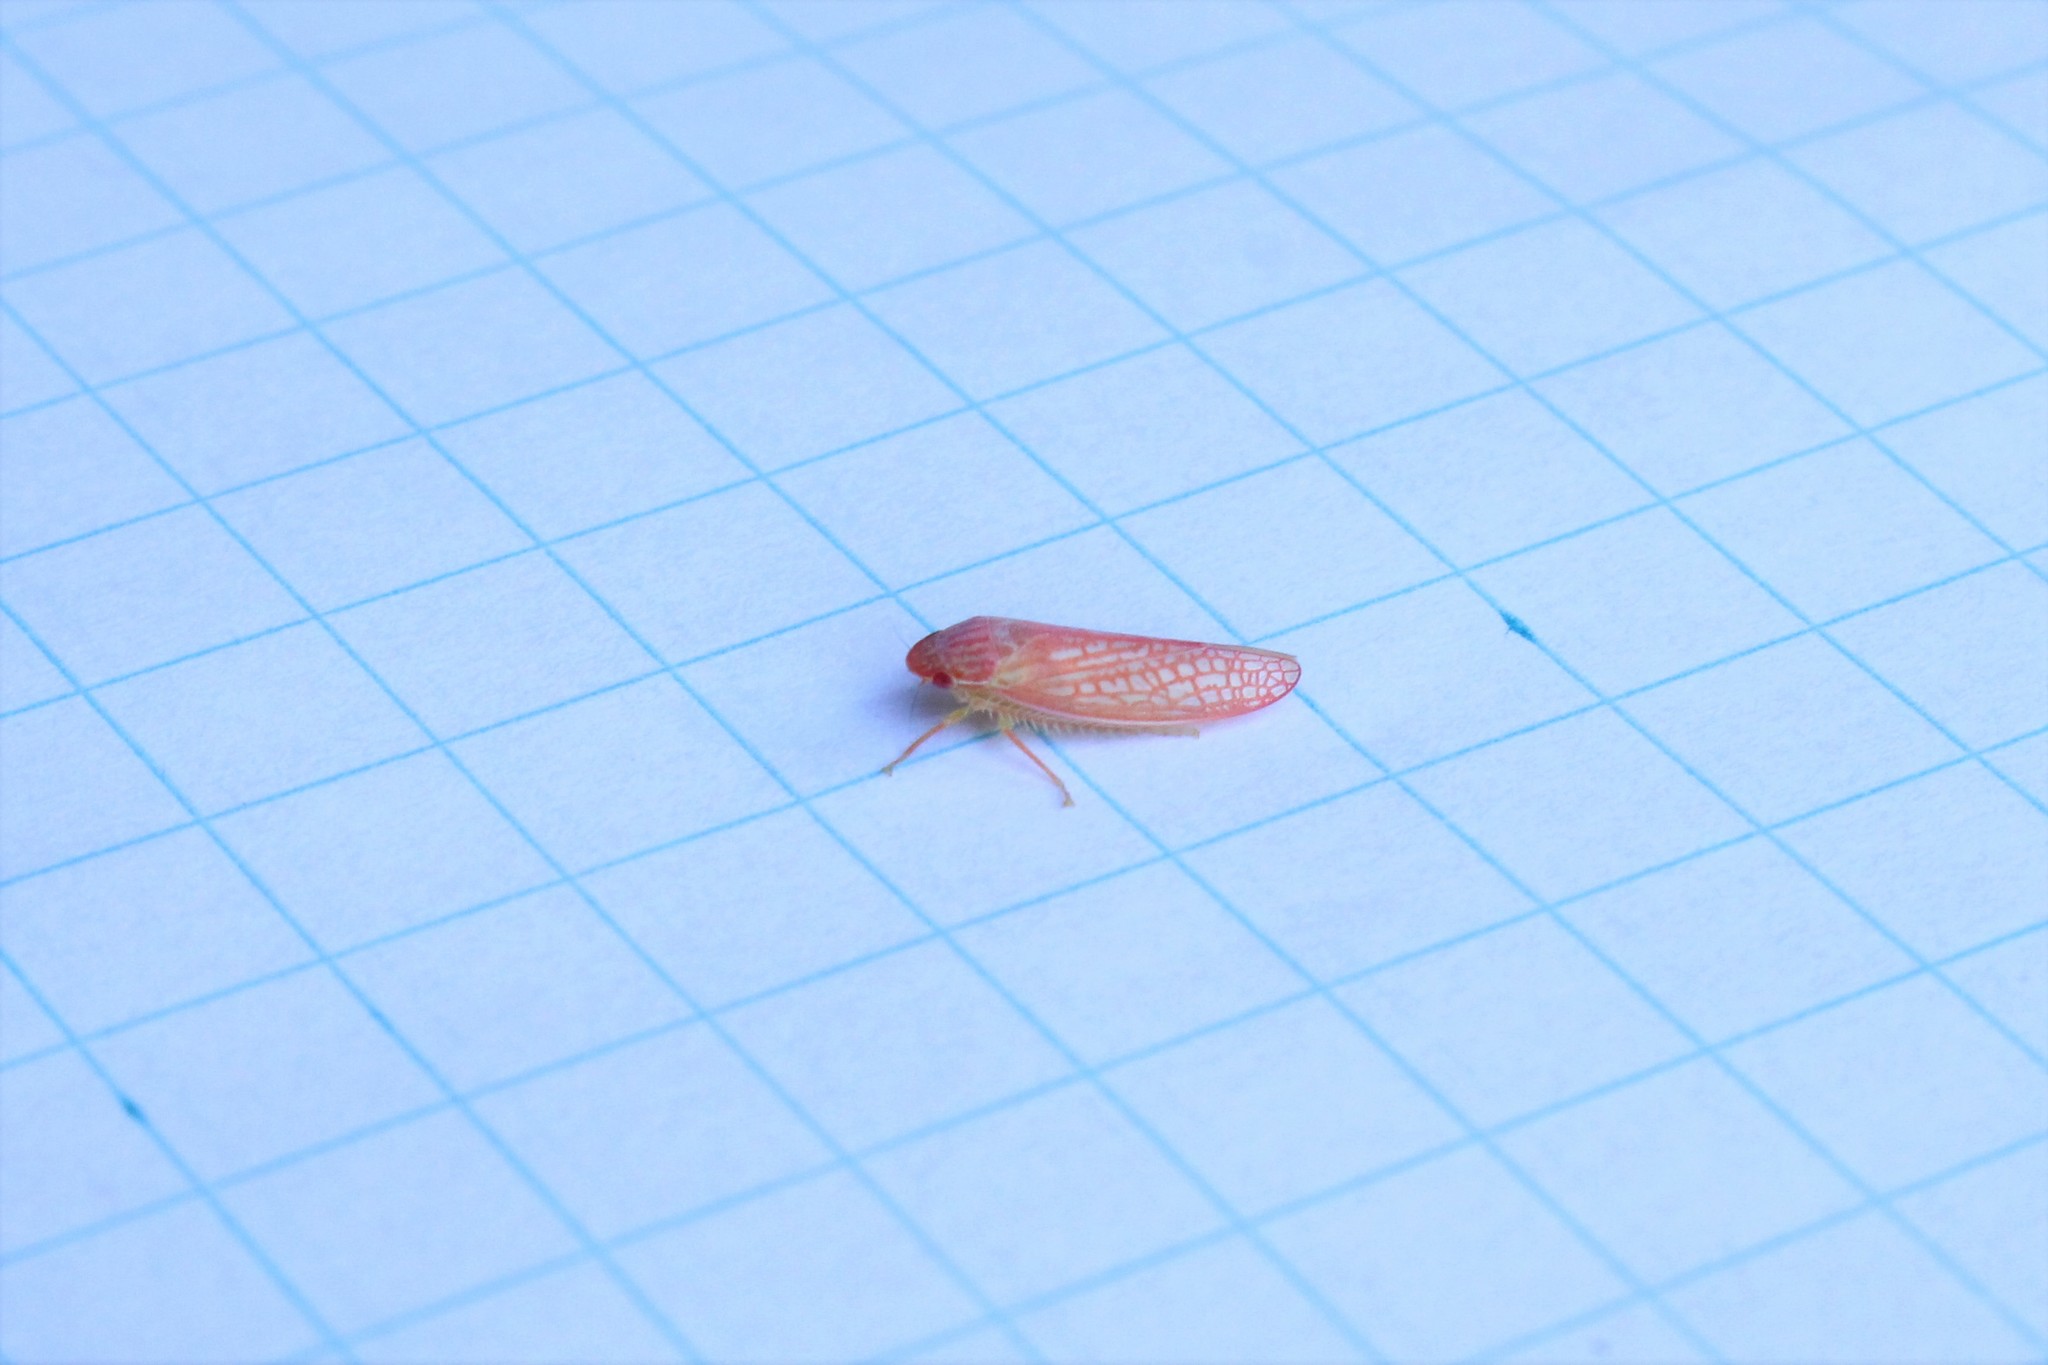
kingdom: Animalia
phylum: Arthropoda
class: Insecta
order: Hemiptera
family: Cicadellidae
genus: Gyponana
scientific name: Gyponana octolineata
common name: Eight-lined leafhopper
